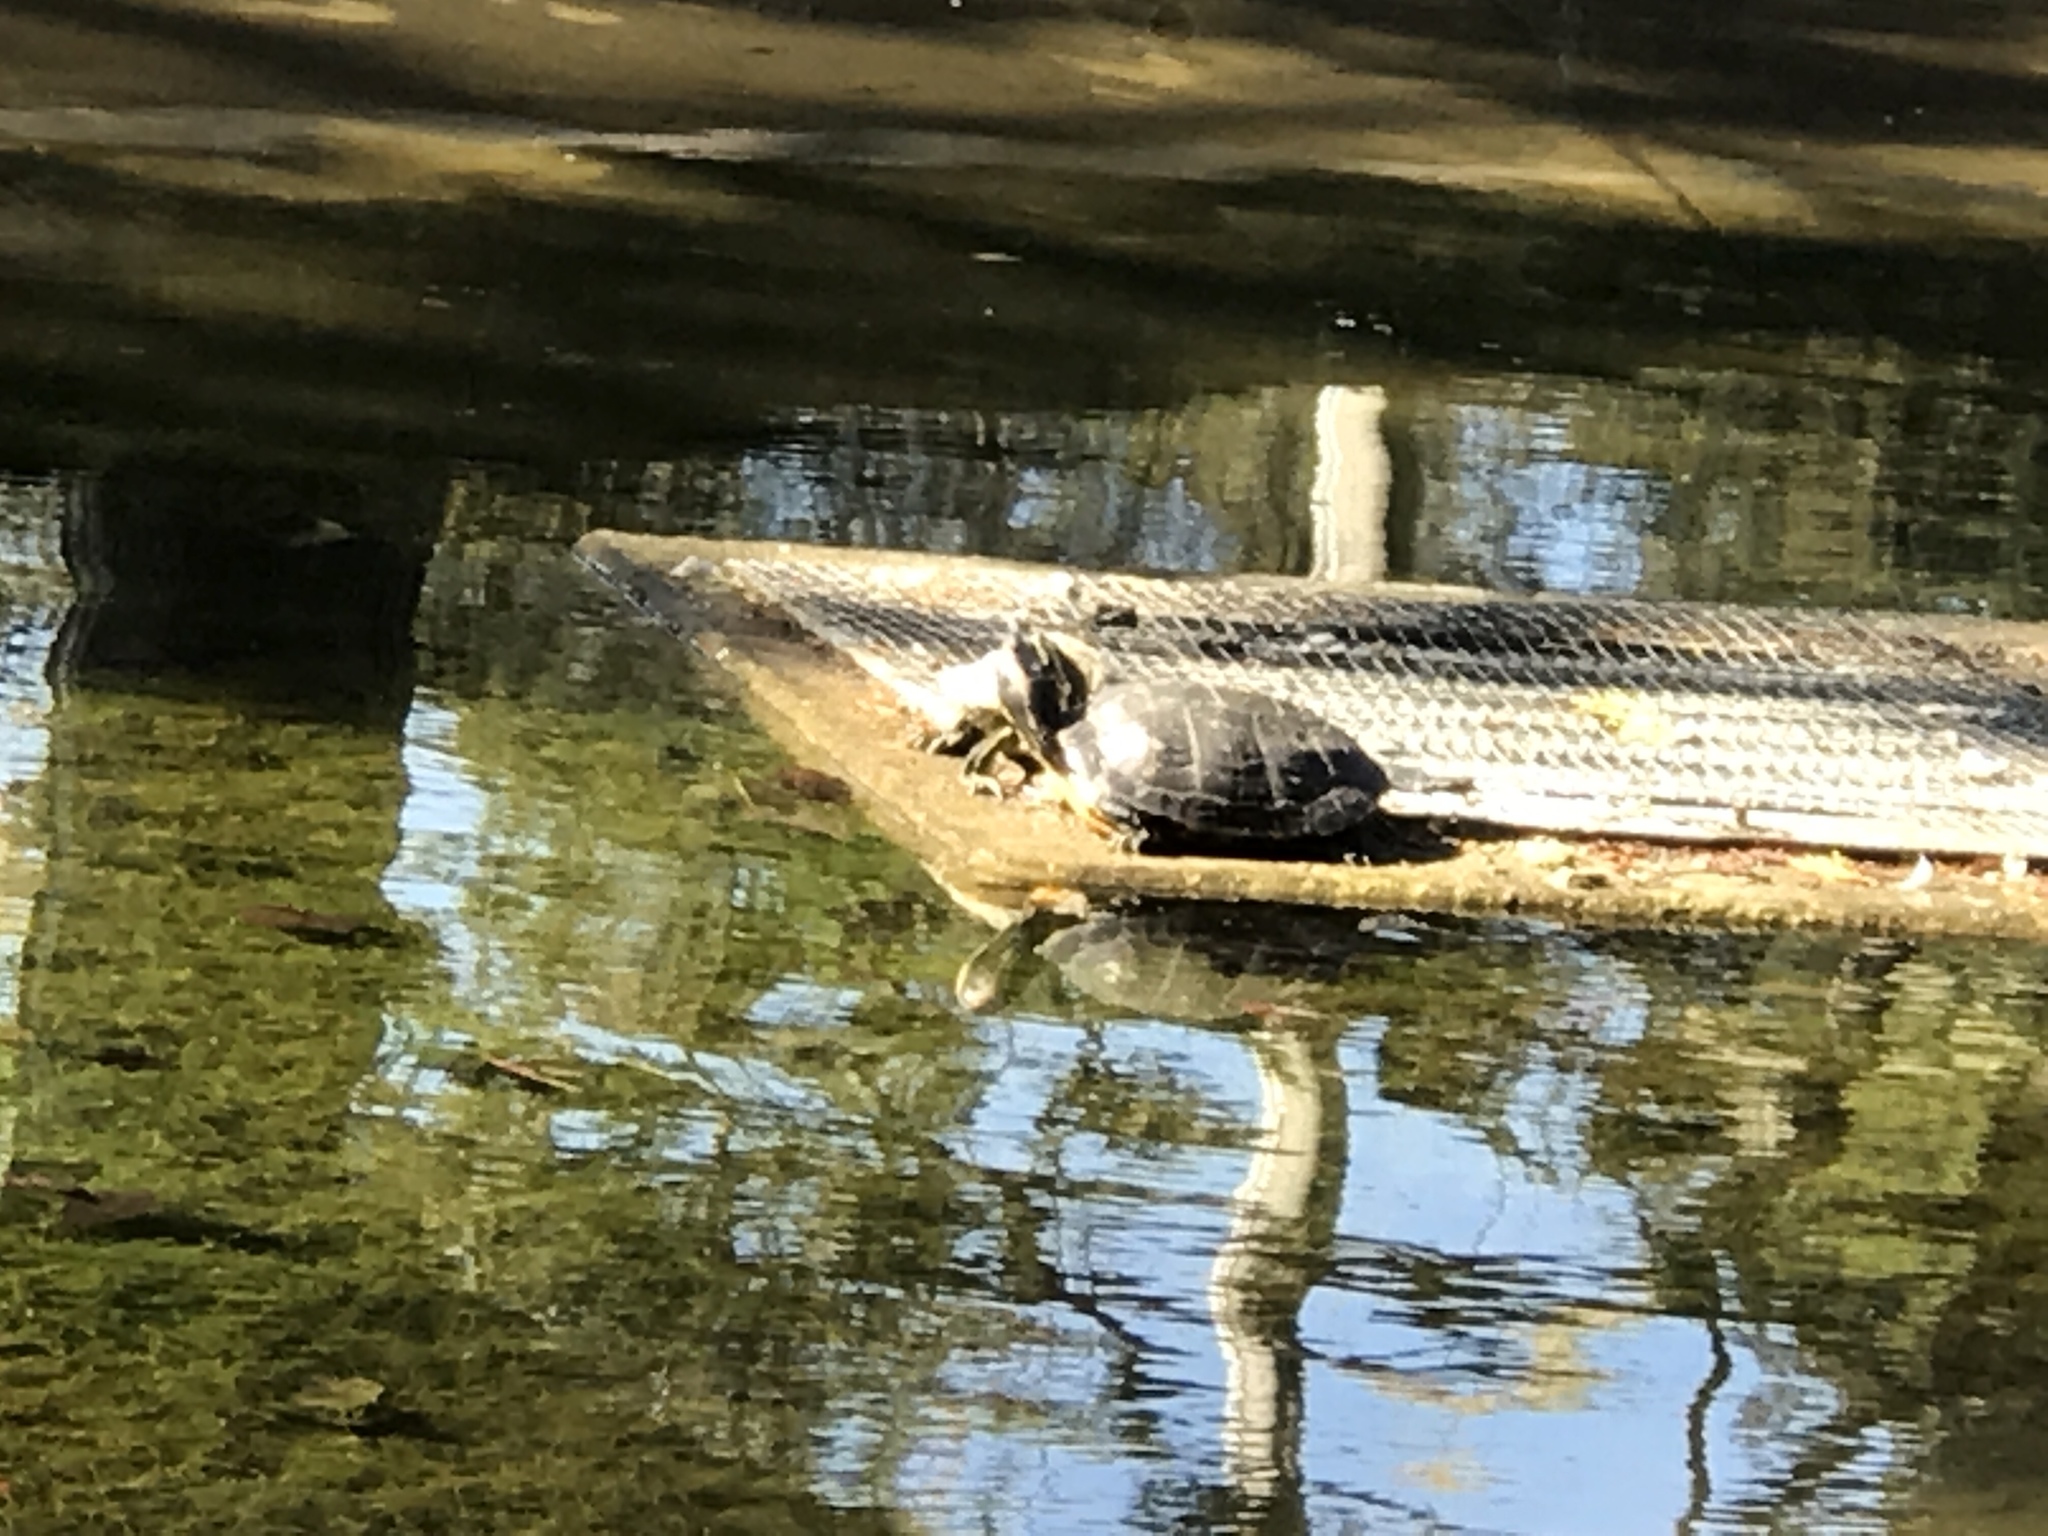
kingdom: Animalia
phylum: Chordata
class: Testudines
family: Emydidae
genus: Trachemys
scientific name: Trachemys scripta
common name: Slider
